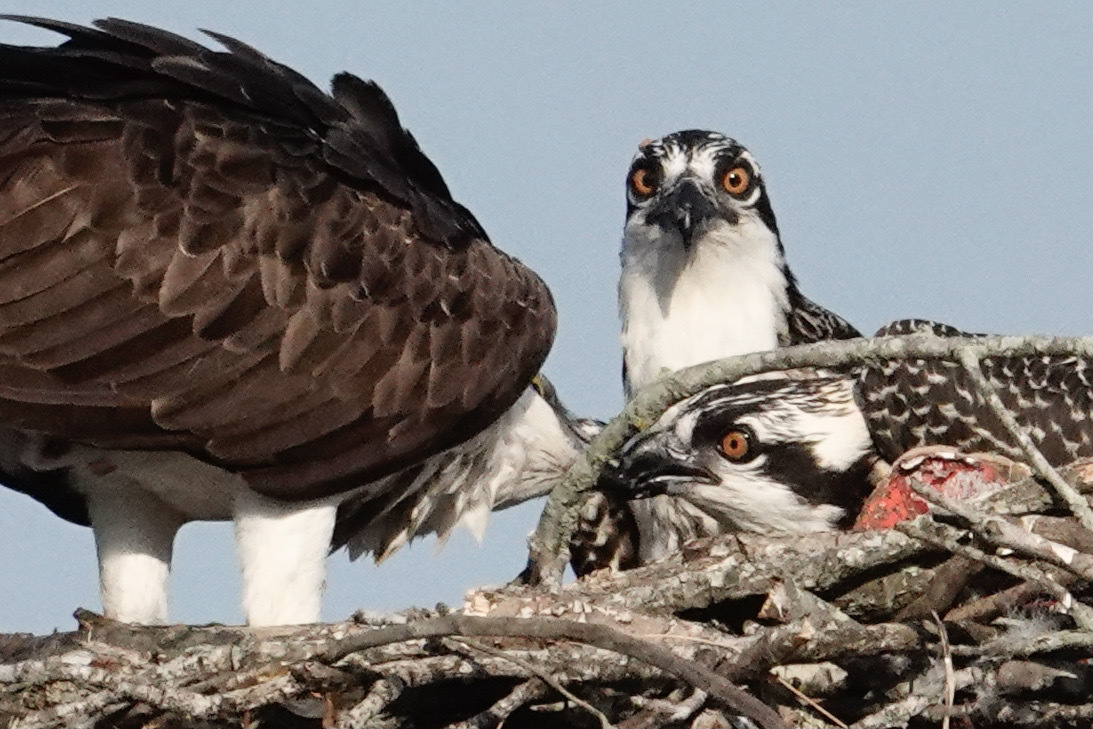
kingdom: Animalia
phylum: Chordata
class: Aves
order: Accipitriformes
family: Pandionidae
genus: Pandion
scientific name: Pandion haliaetus
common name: Osprey
